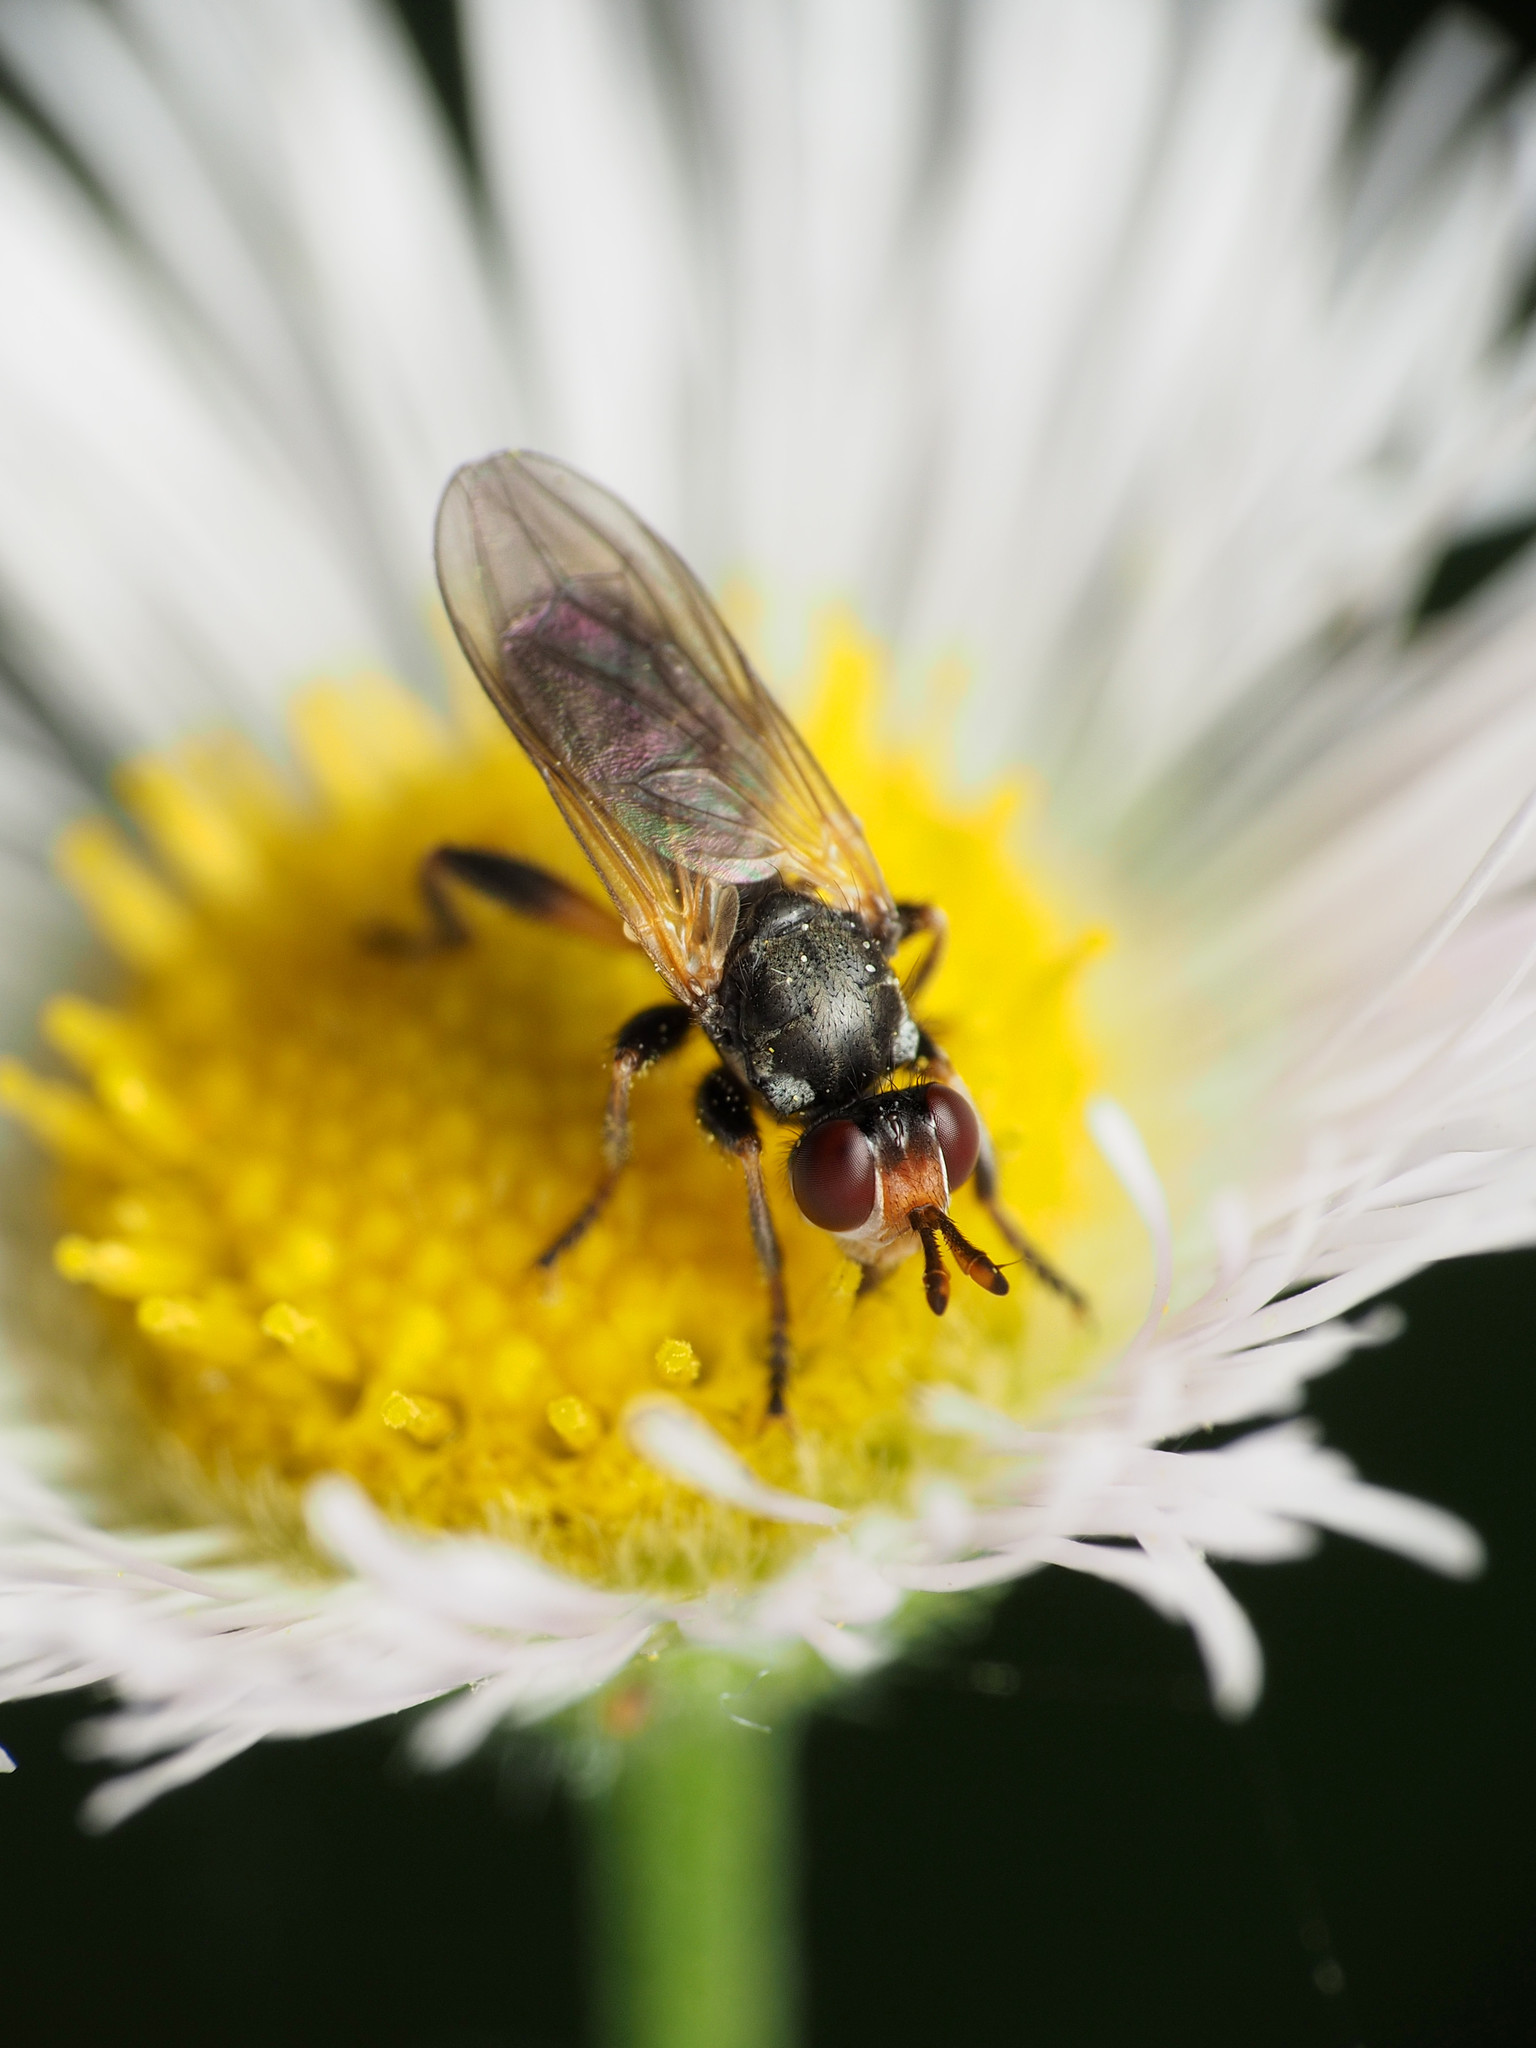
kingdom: Animalia
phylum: Arthropoda
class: Insecta
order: Diptera
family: Conopidae
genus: Thecophora
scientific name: Thecophora occidensis
